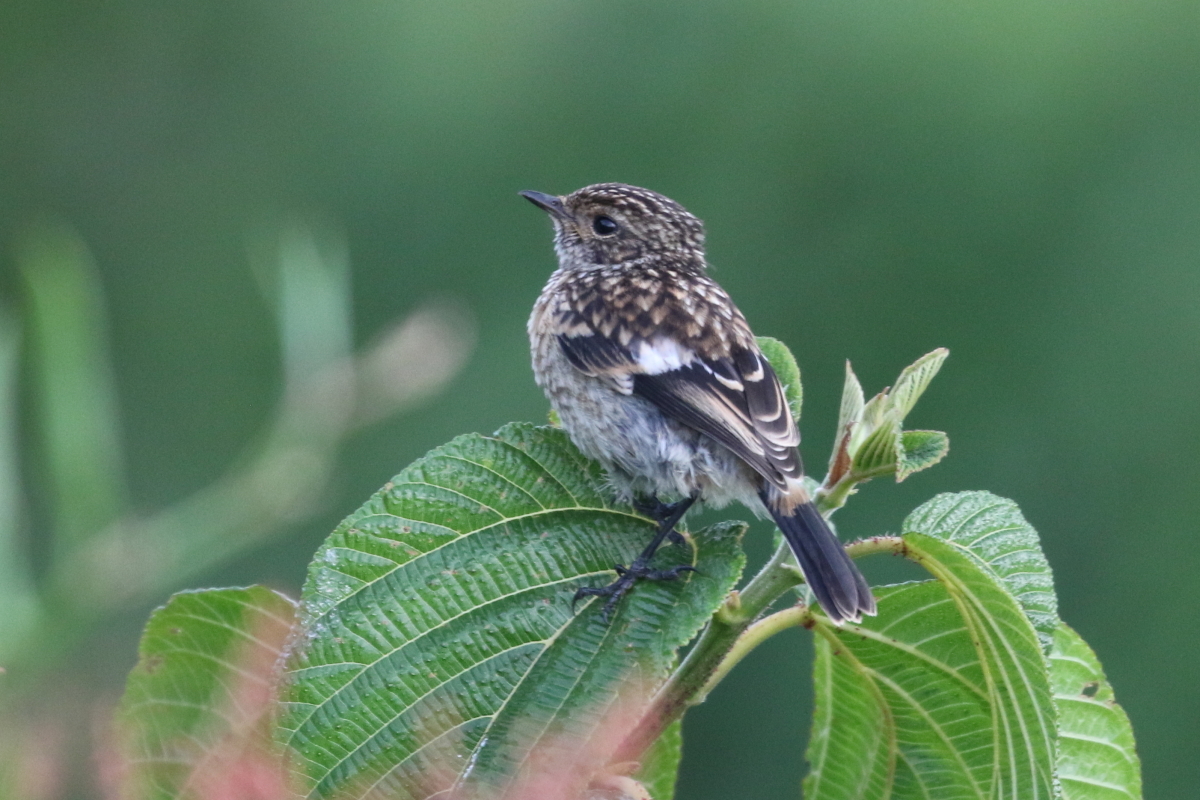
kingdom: Animalia
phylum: Chordata
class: Aves
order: Passeriformes
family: Muscicapidae
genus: Saxicola
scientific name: Saxicola torquatus
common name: African stonechat
